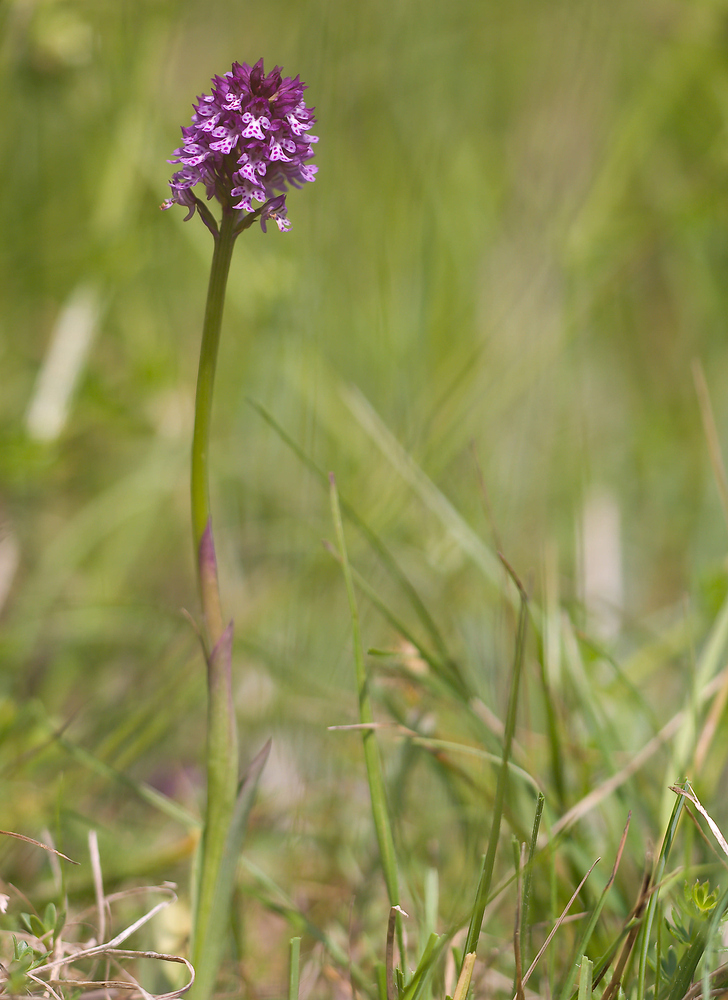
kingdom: Plantae
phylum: Tracheophyta
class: Liliopsida
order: Asparagales
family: Orchidaceae
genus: Neotinea
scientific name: Neotinea dietrichiana
